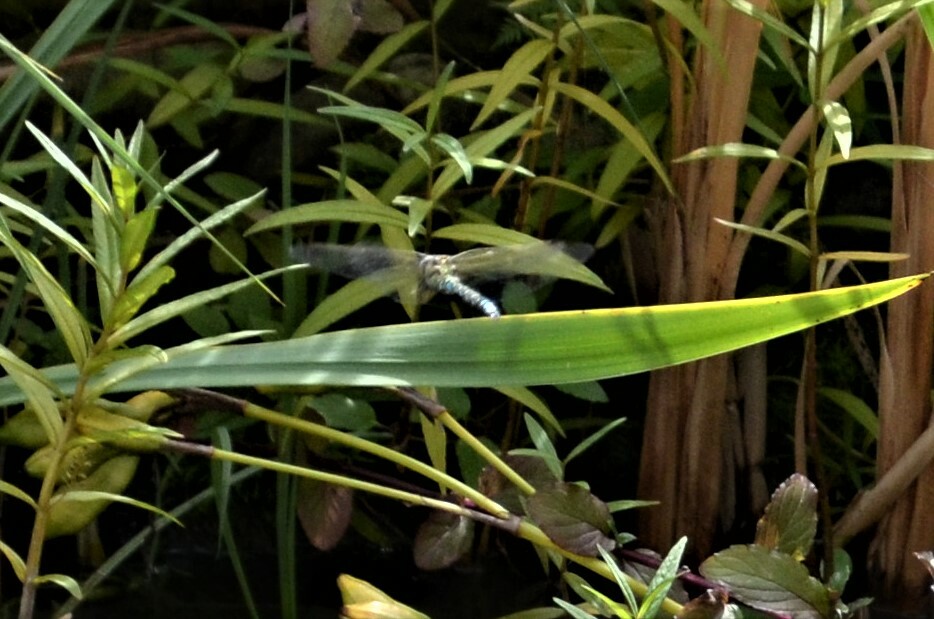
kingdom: Animalia
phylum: Arthropoda
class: Insecta
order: Odonata
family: Aeshnidae
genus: Aeshna
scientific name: Aeshna cyanea
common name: Southern hawker
